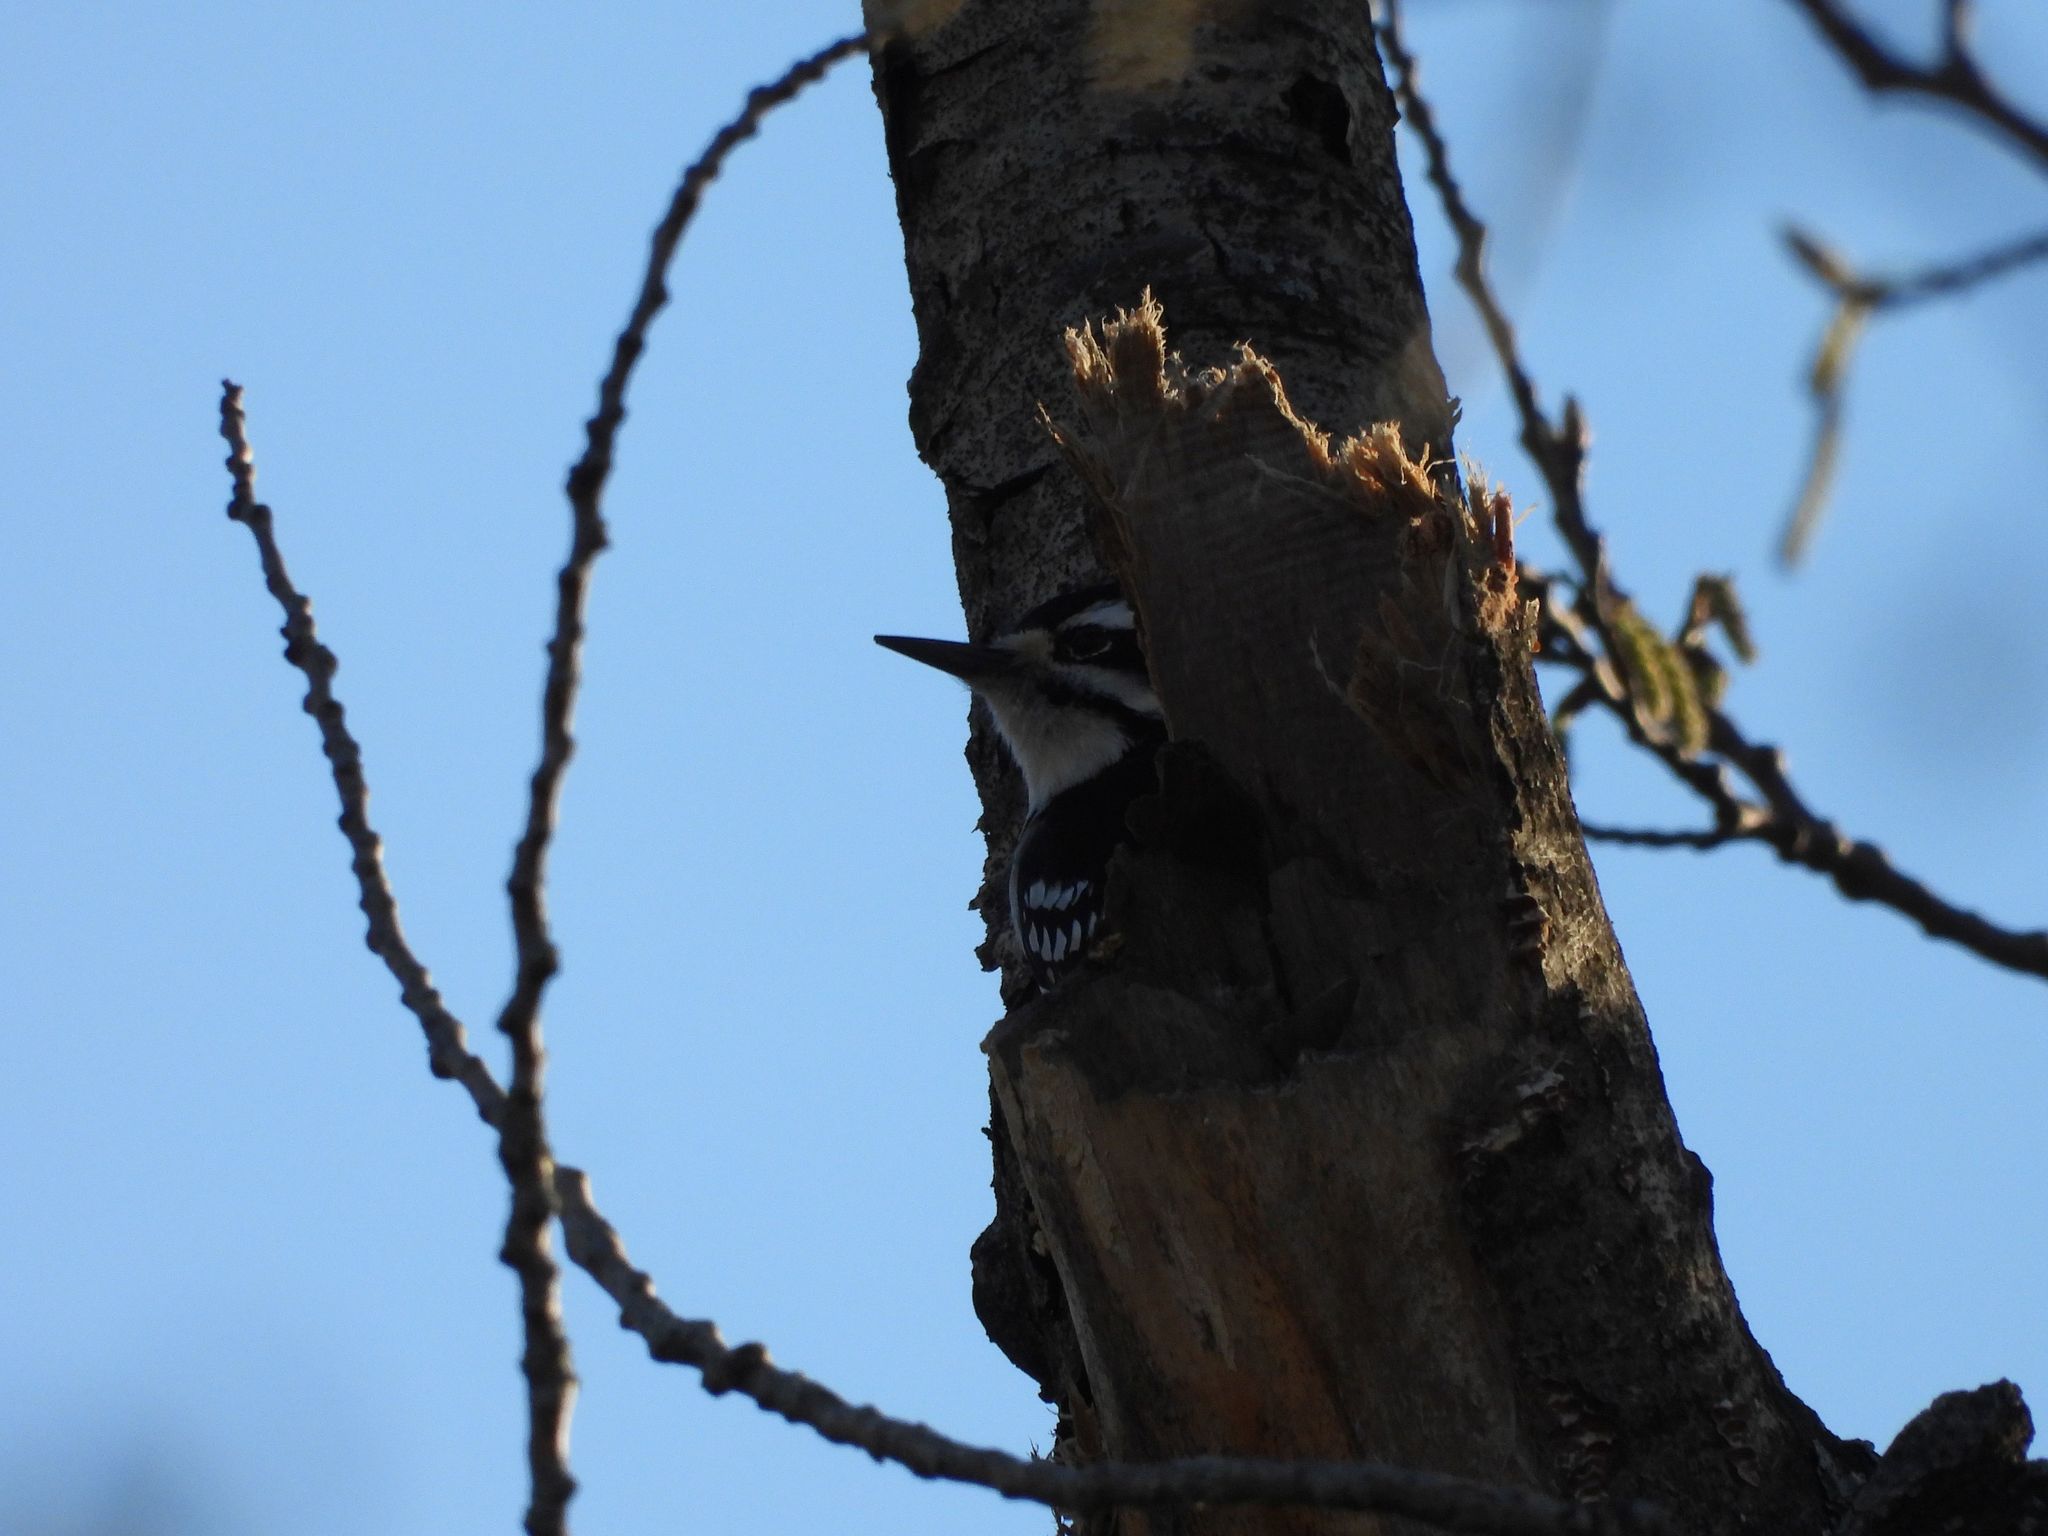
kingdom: Animalia
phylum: Chordata
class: Aves
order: Piciformes
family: Picidae
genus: Leuconotopicus
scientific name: Leuconotopicus villosus
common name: Hairy woodpecker
